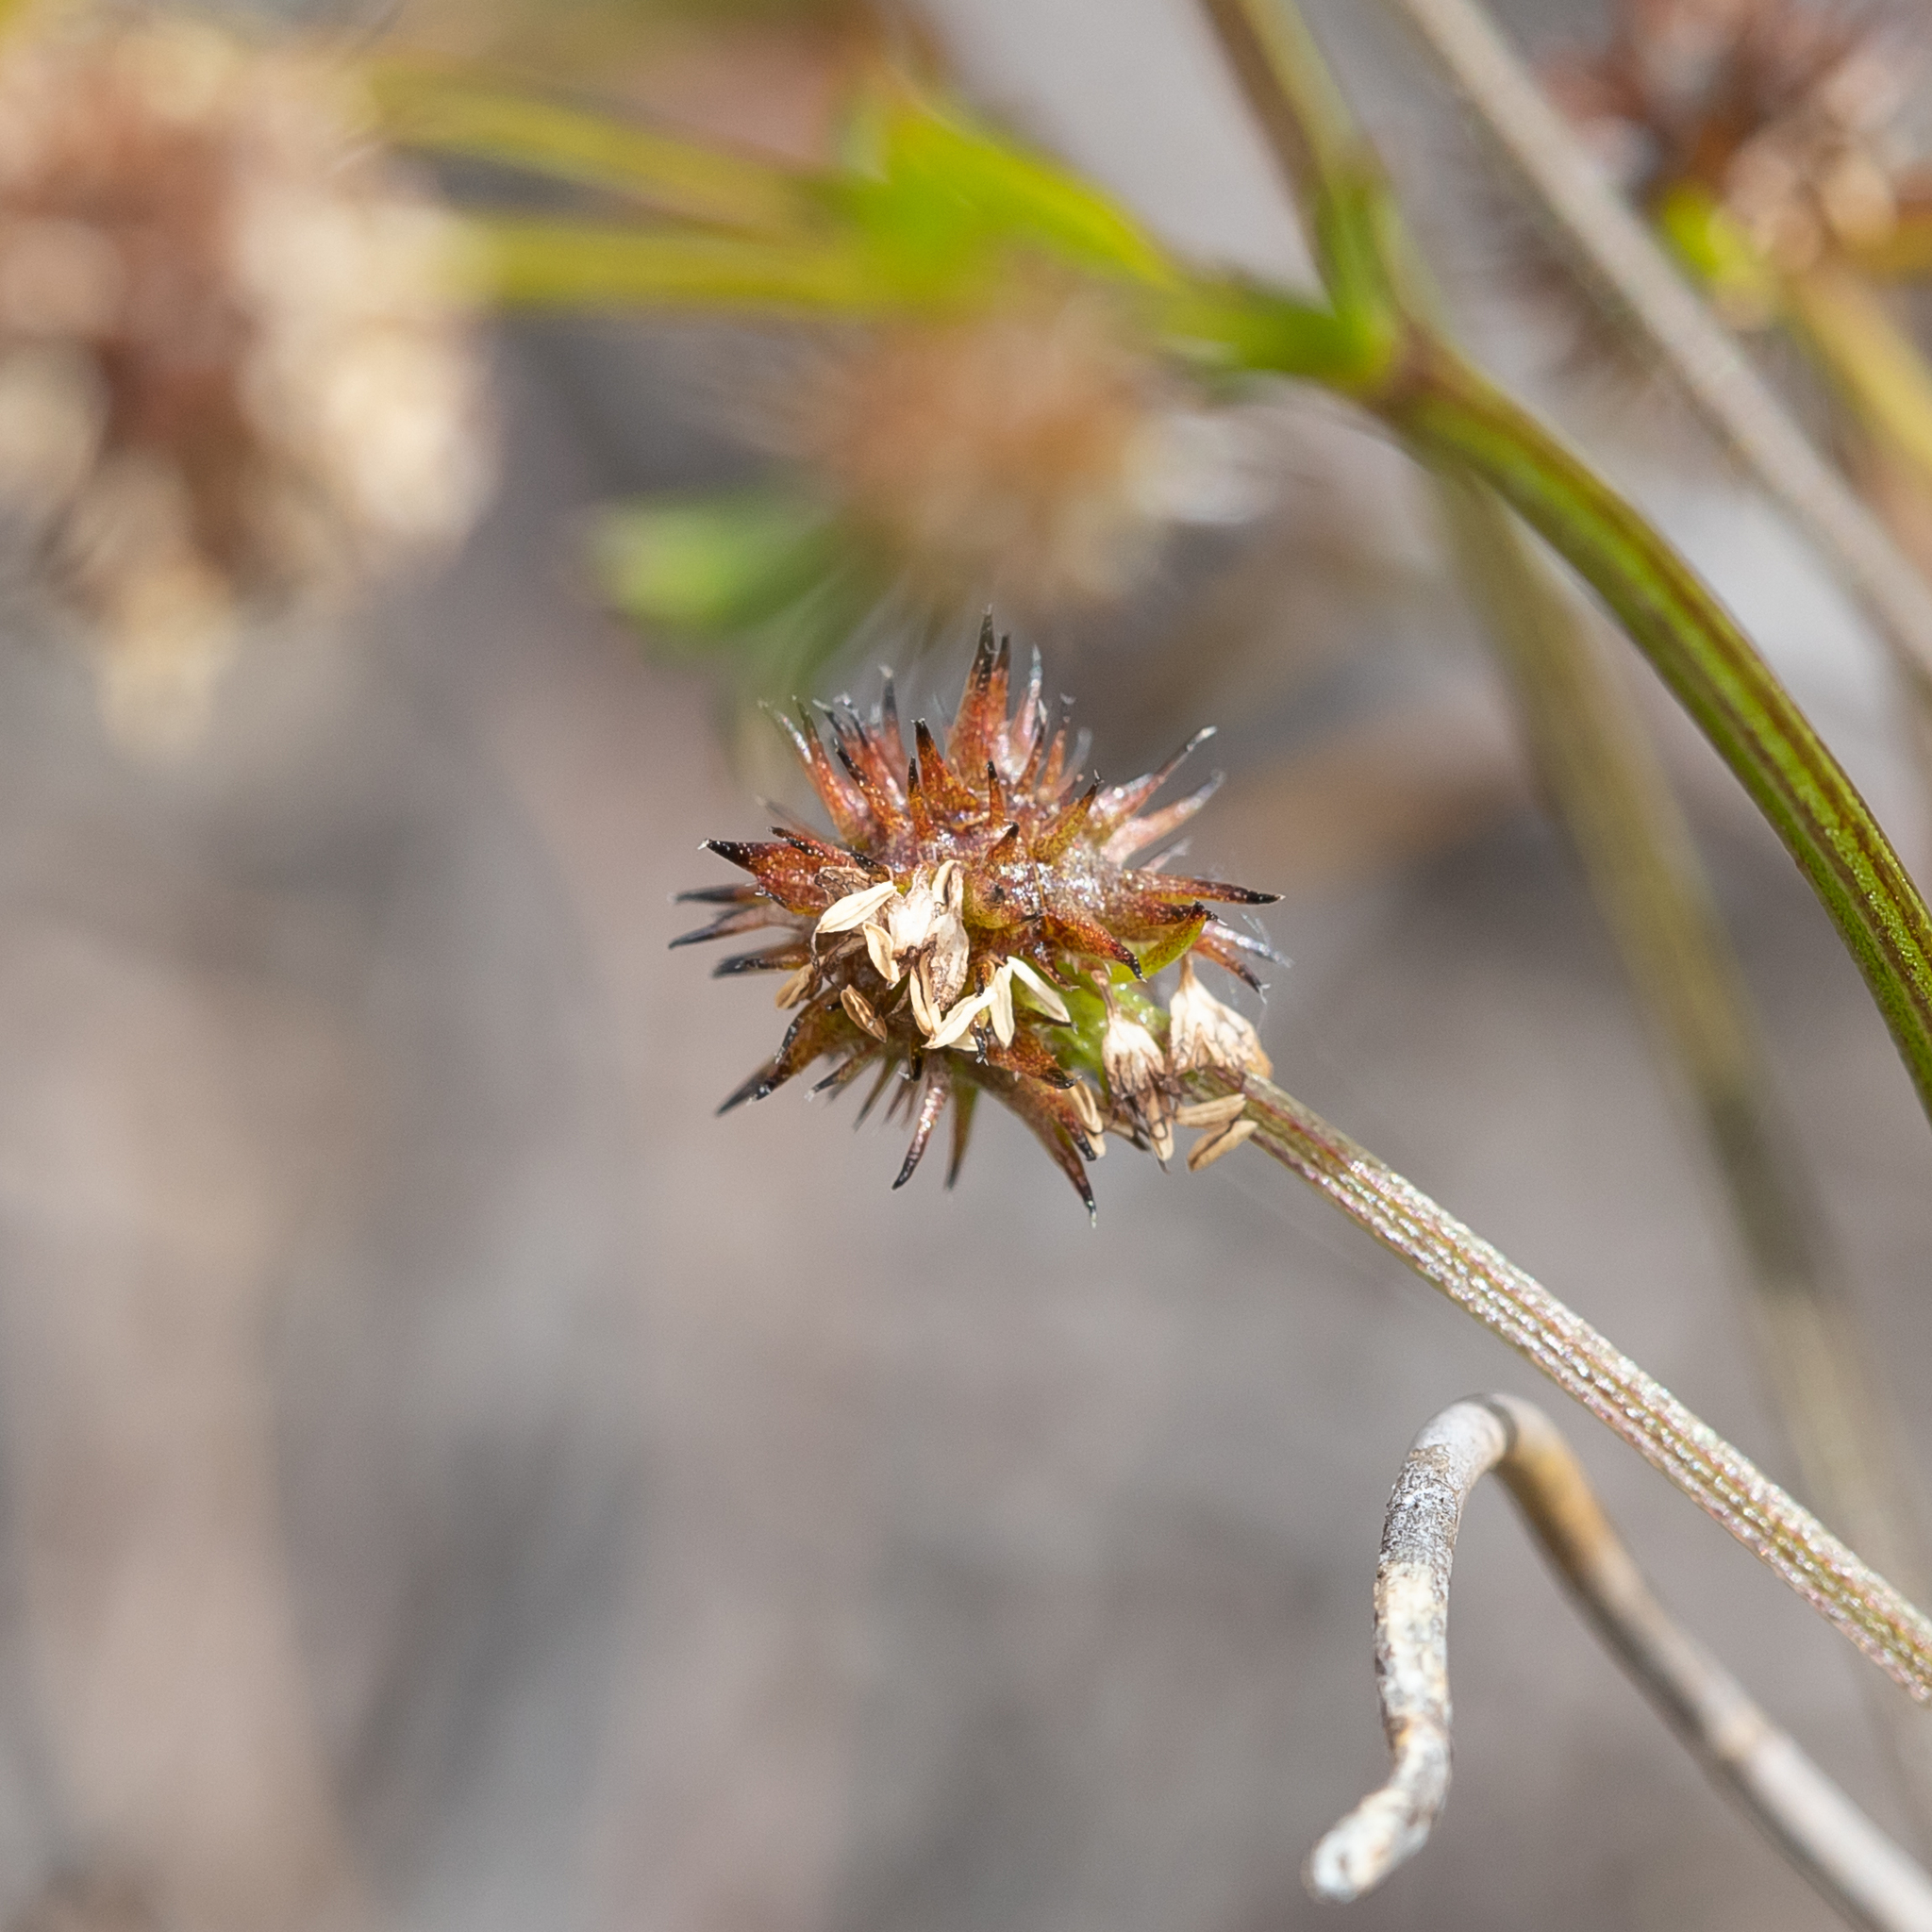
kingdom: Plantae
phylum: Tracheophyta
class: Magnoliopsida
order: Gentianales
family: Rubiaceae
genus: Opercularia
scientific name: Opercularia scabrida
